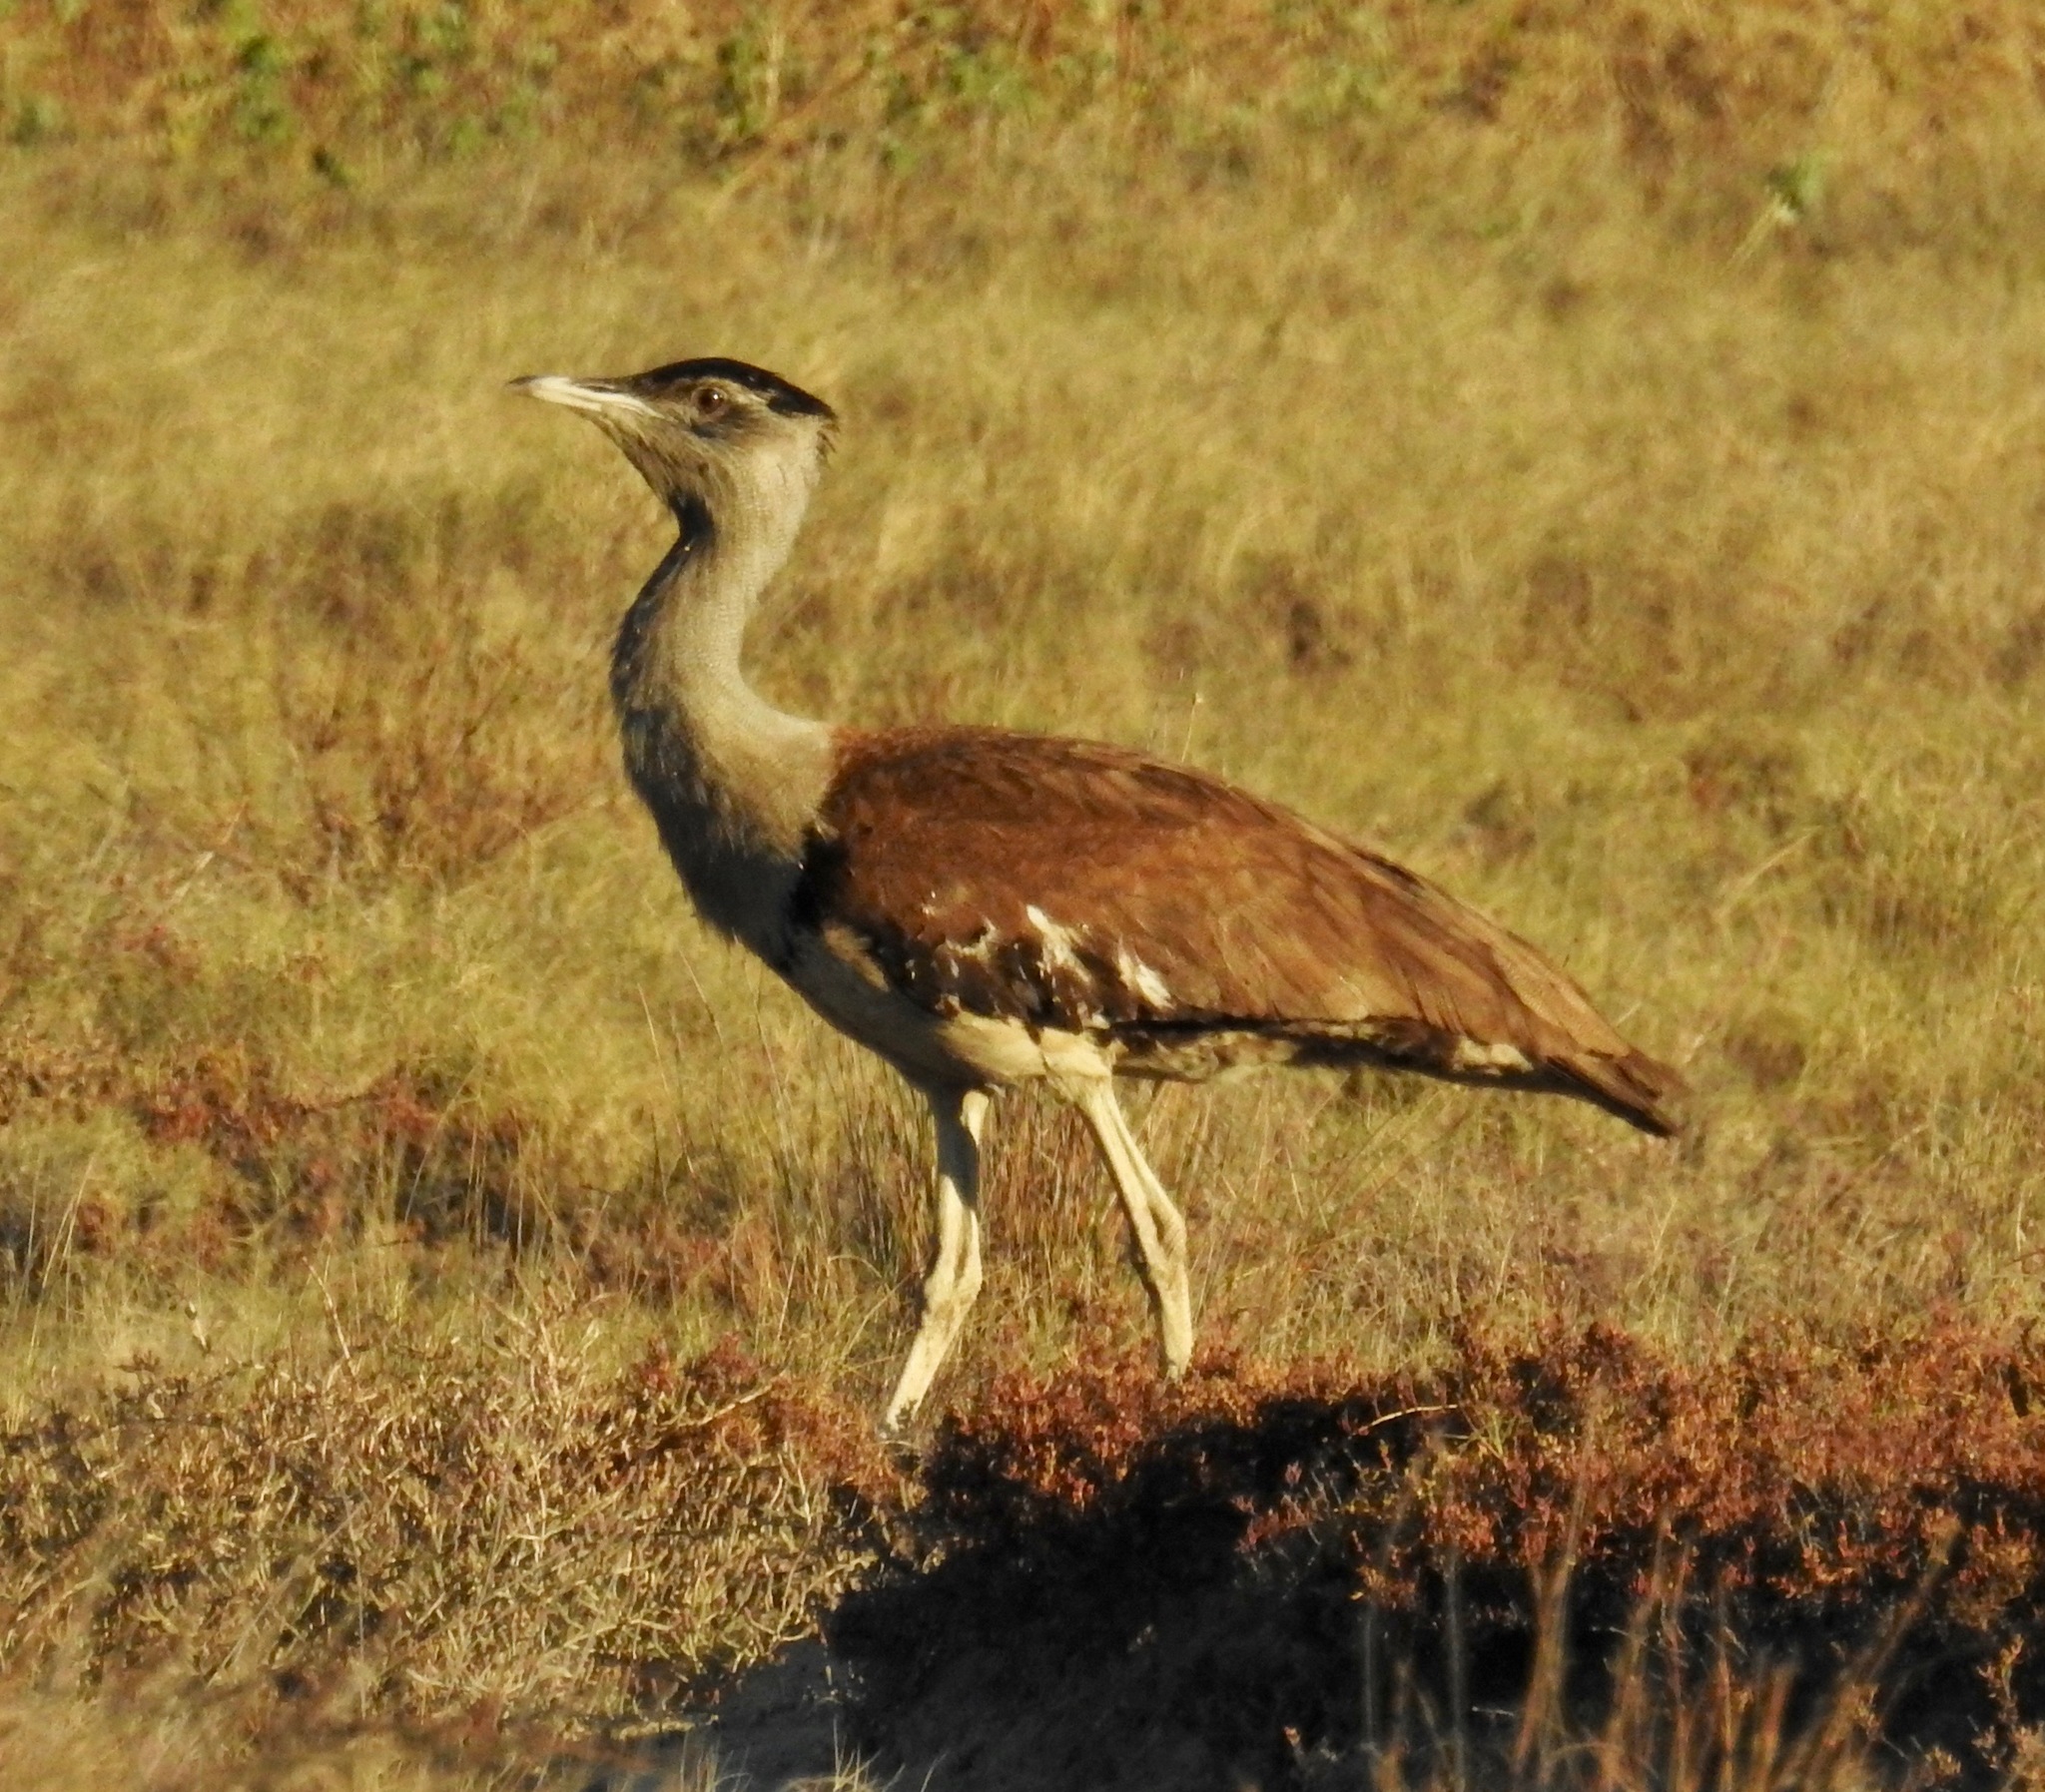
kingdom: Animalia
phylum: Chordata
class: Aves
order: Otidiformes
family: Otididae
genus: Ardeotis
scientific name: Ardeotis australis
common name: Australian bustard
